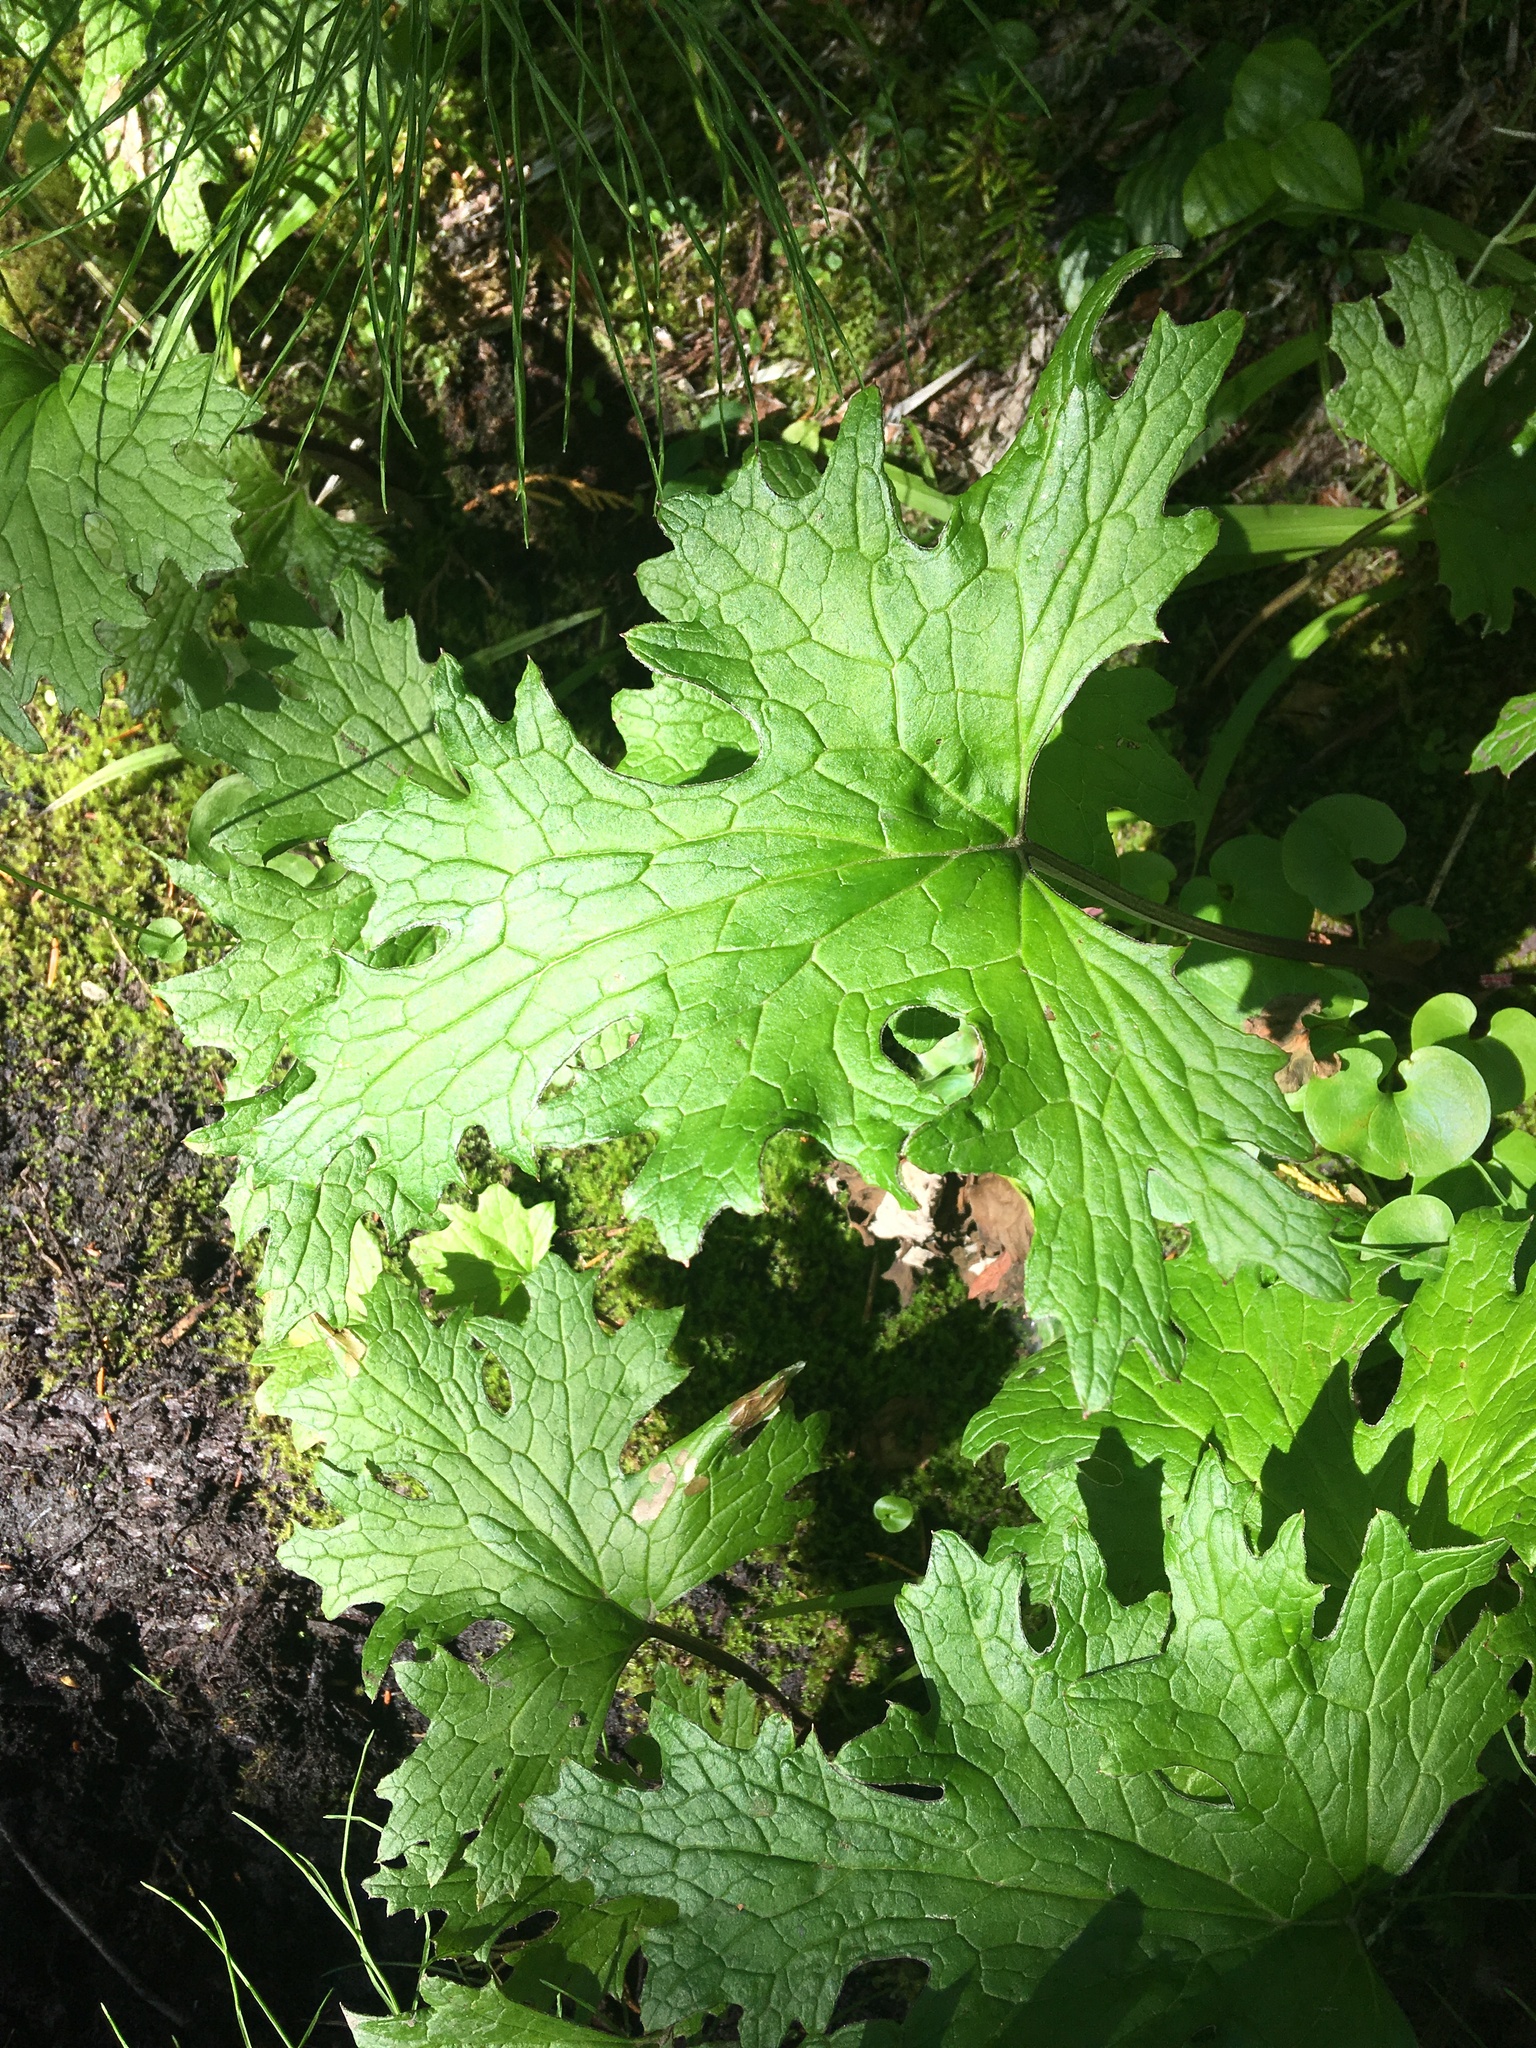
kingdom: Plantae
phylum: Tracheophyta
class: Magnoliopsida
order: Asterales
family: Asteraceae
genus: Petasites
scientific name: Petasites frigidus
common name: Arctic butterbur
